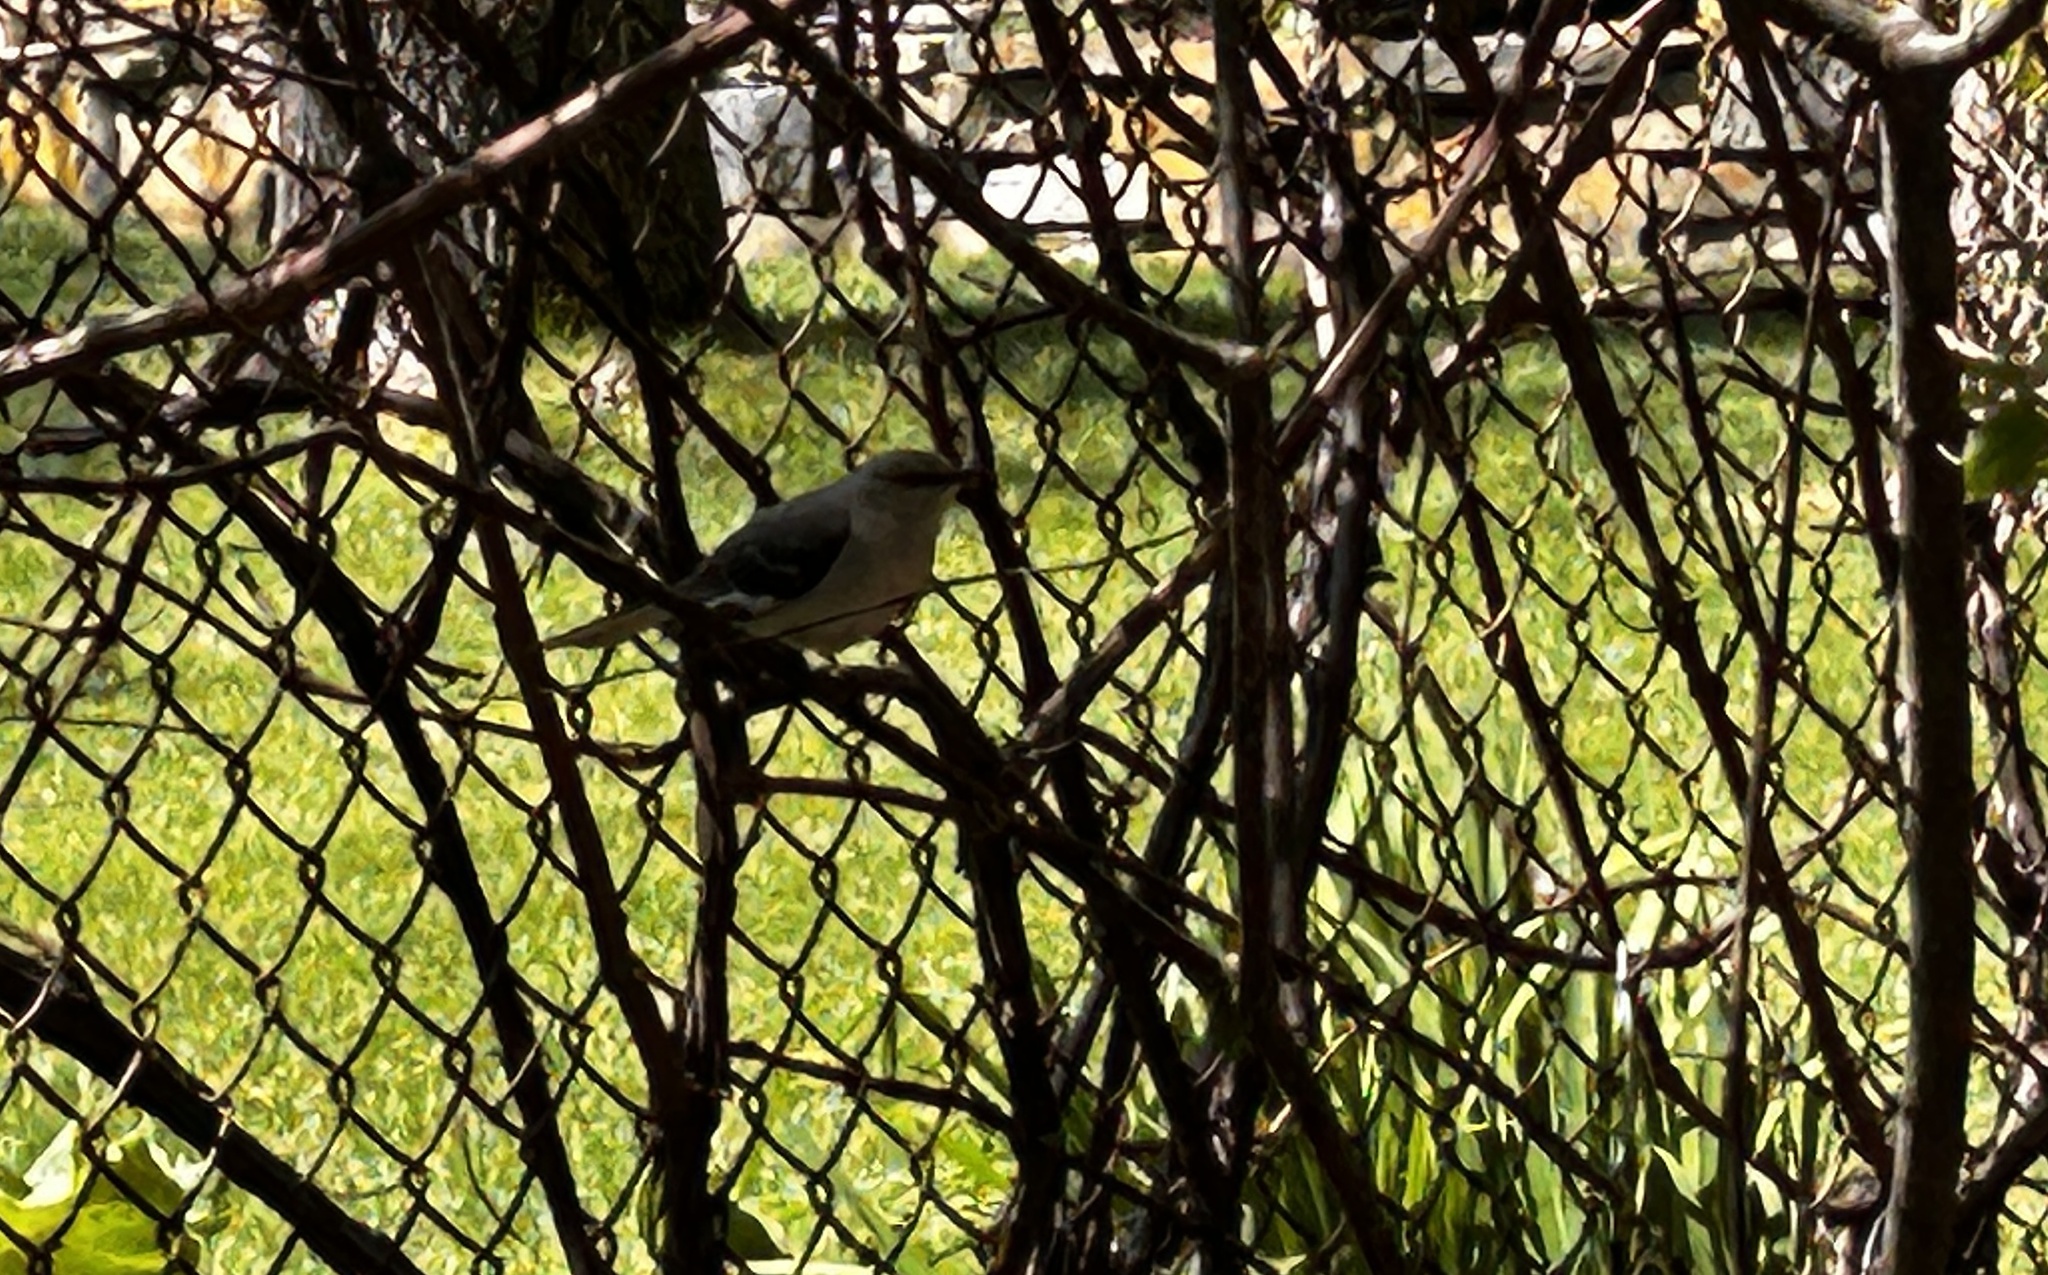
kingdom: Animalia
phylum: Chordata
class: Aves
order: Passeriformes
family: Mimidae
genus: Mimus
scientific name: Mimus polyglottos
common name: Northern mockingbird
